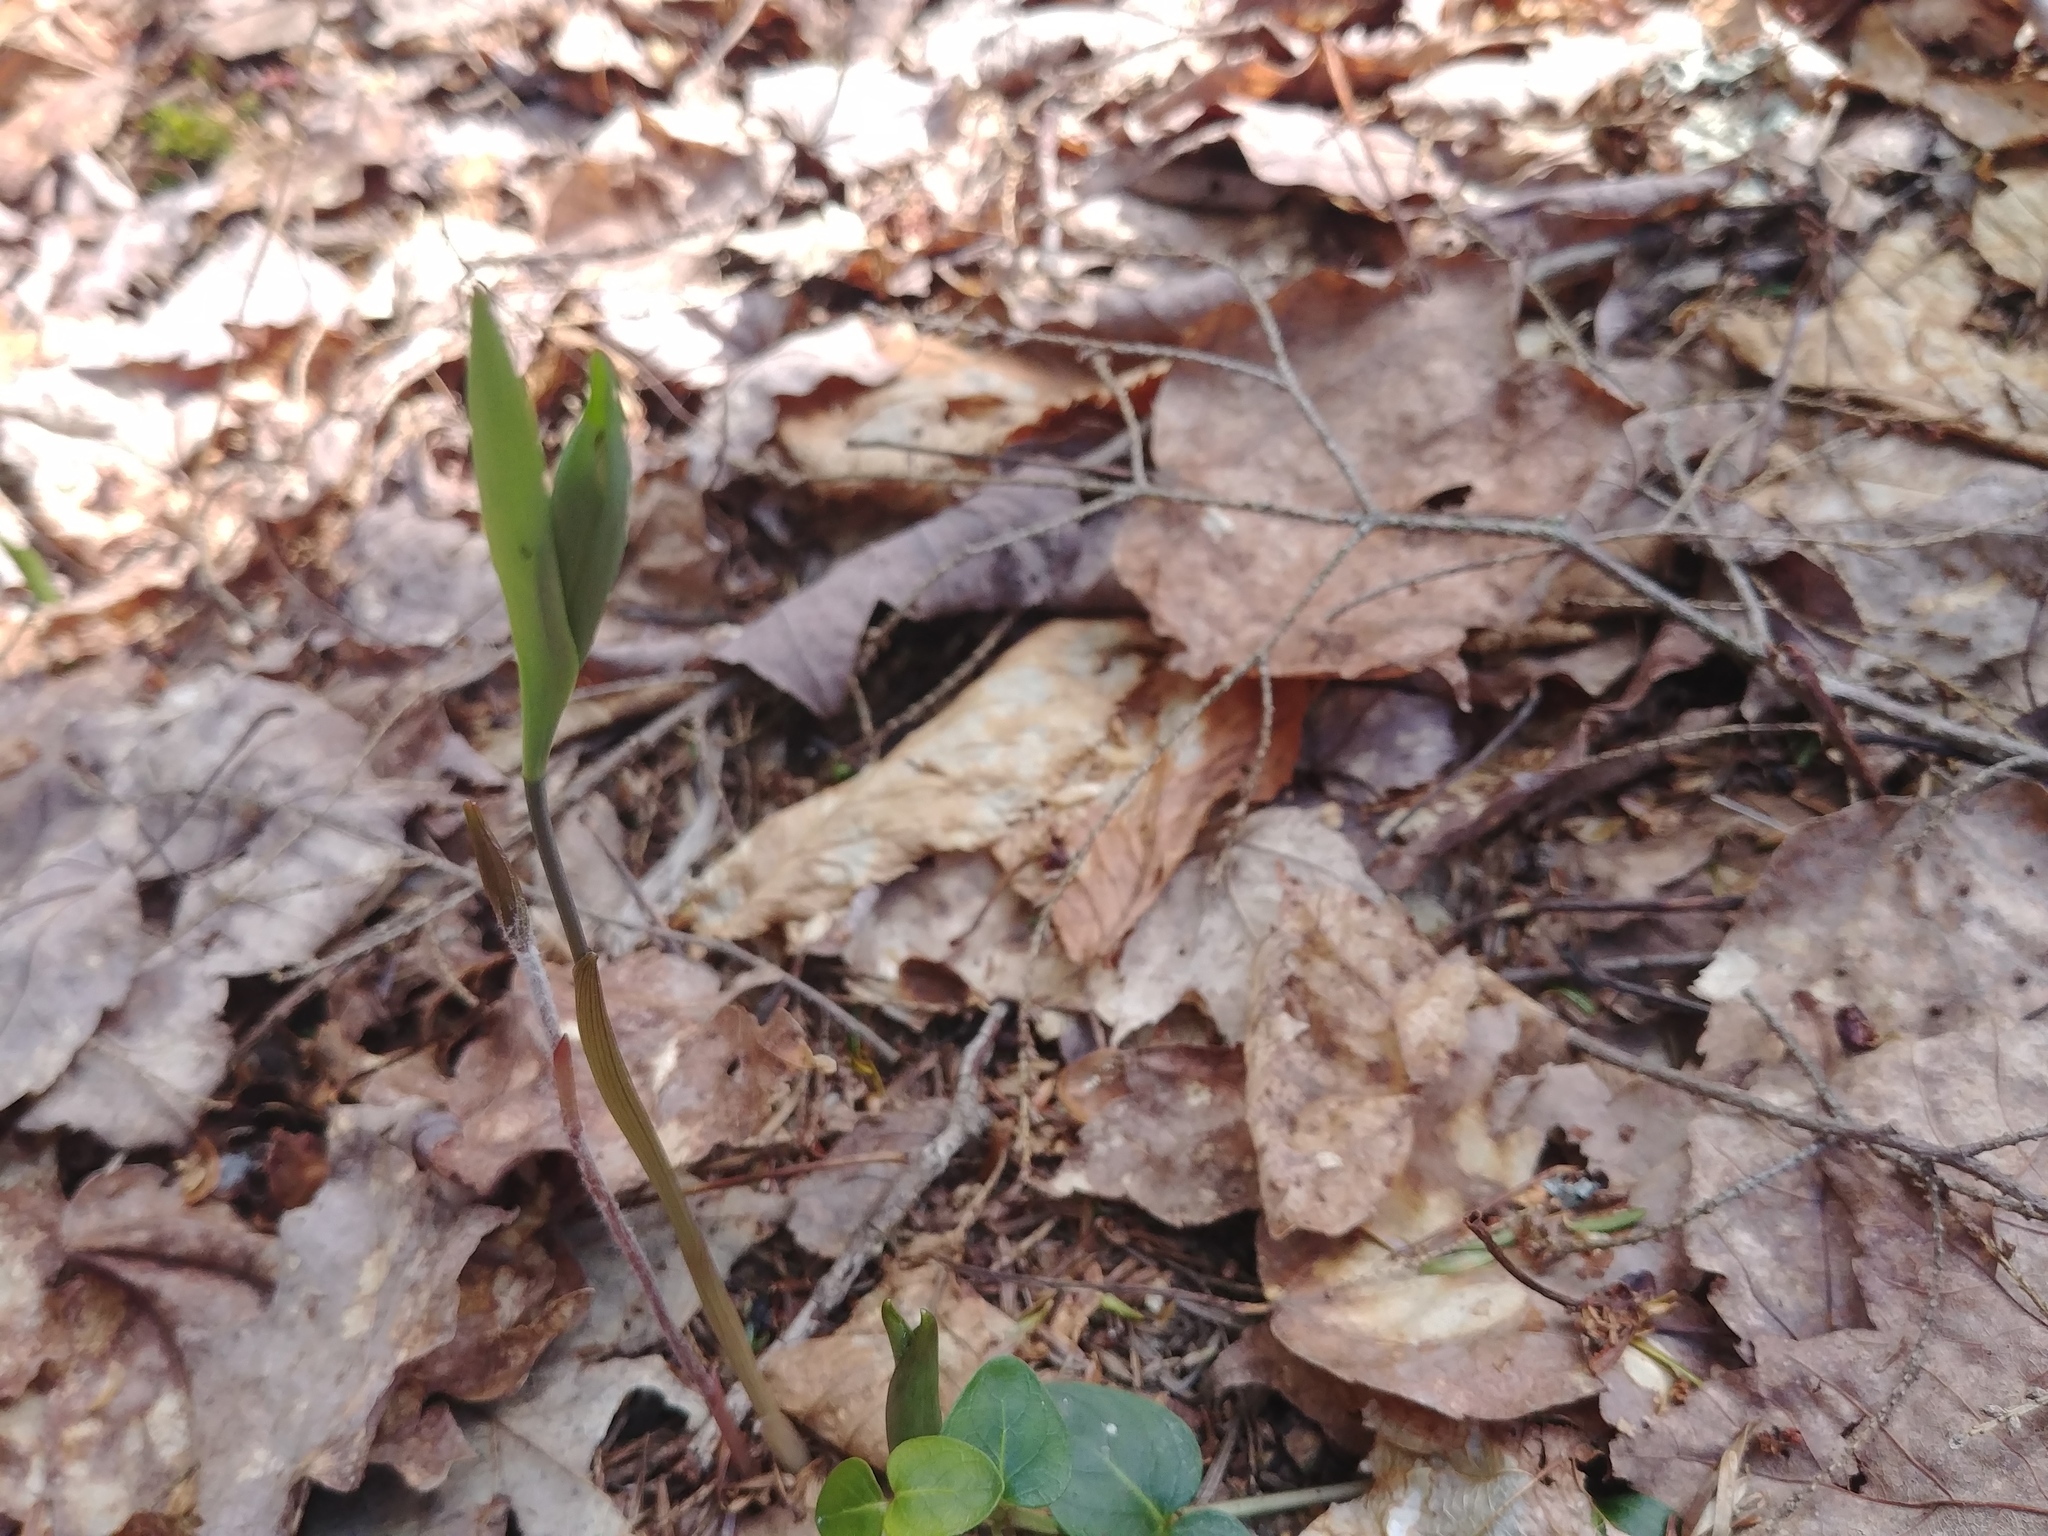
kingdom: Plantae
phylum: Tracheophyta
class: Liliopsida
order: Liliales
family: Colchicaceae
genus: Uvularia
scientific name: Uvularia sessilifolia
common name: Straw-lily
